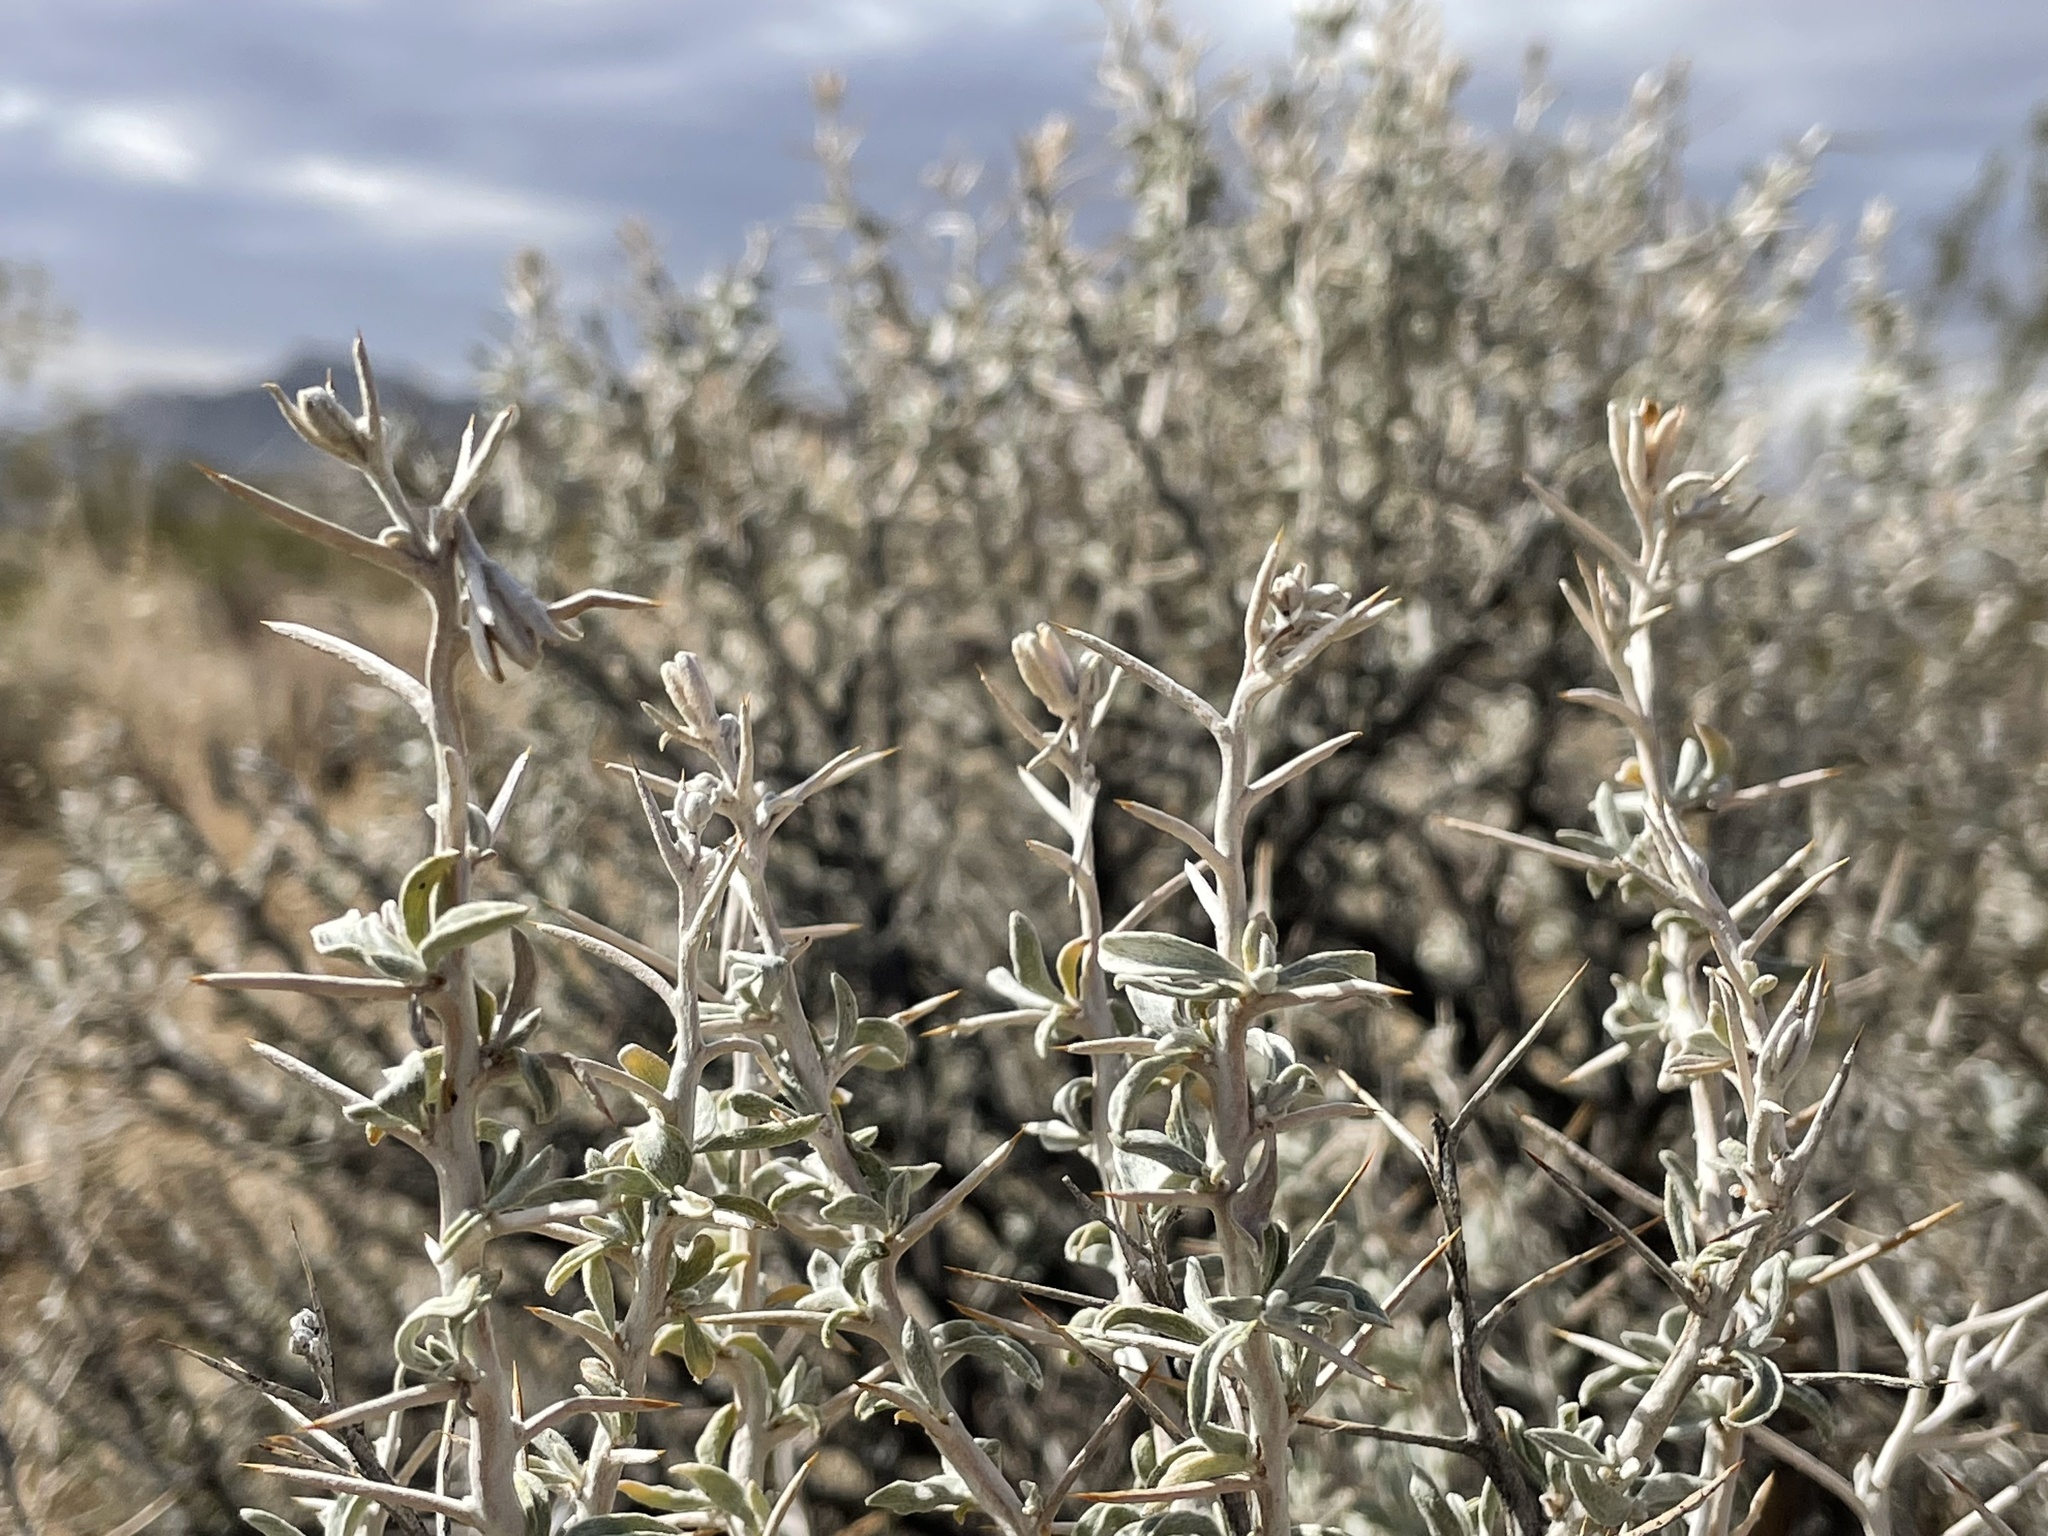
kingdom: Plantae
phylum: Tracheophyta
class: Magnoliopsida
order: Asterales
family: Asteraceae
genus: Tetradymia
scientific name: Tetradymia stenolepis
